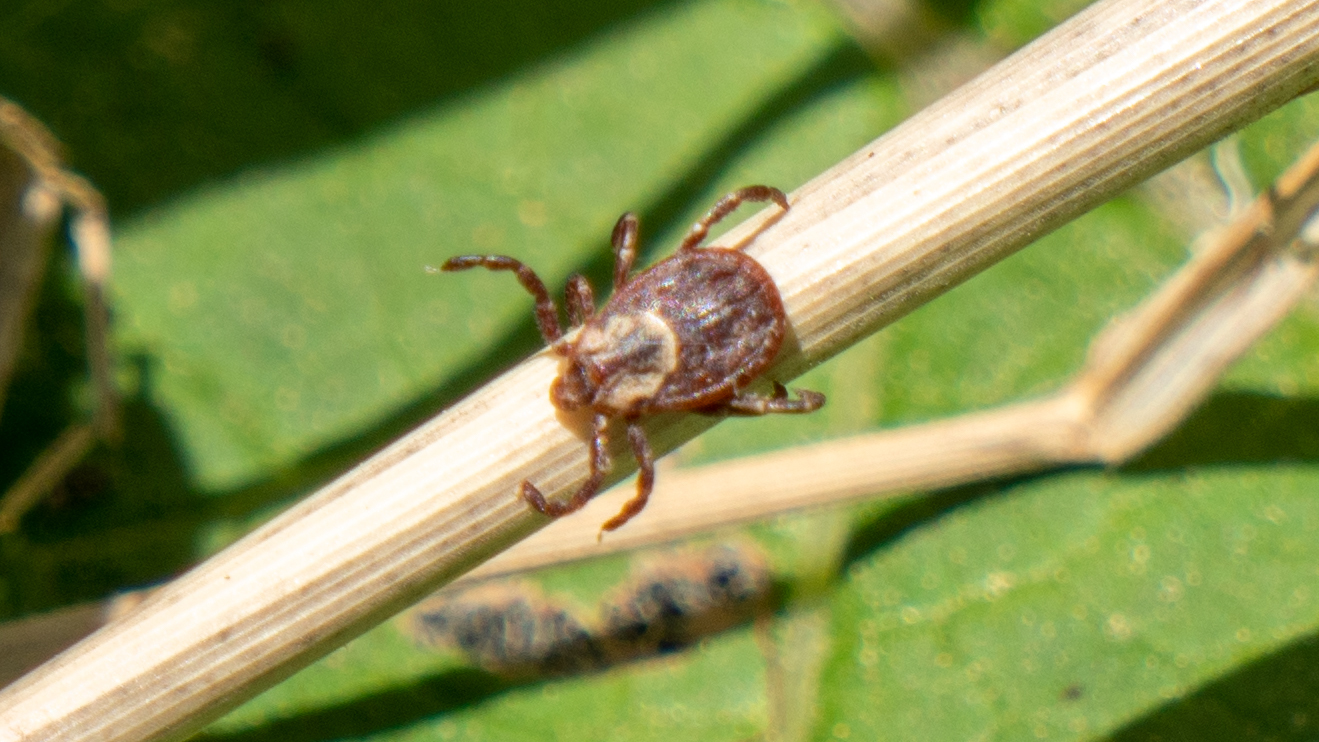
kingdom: Animalia
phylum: Arthropoda
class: Arachnida
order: Ixodida
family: Ixodidae
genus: Dermacentor
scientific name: Dermacentor variabilis
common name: American dog tick
